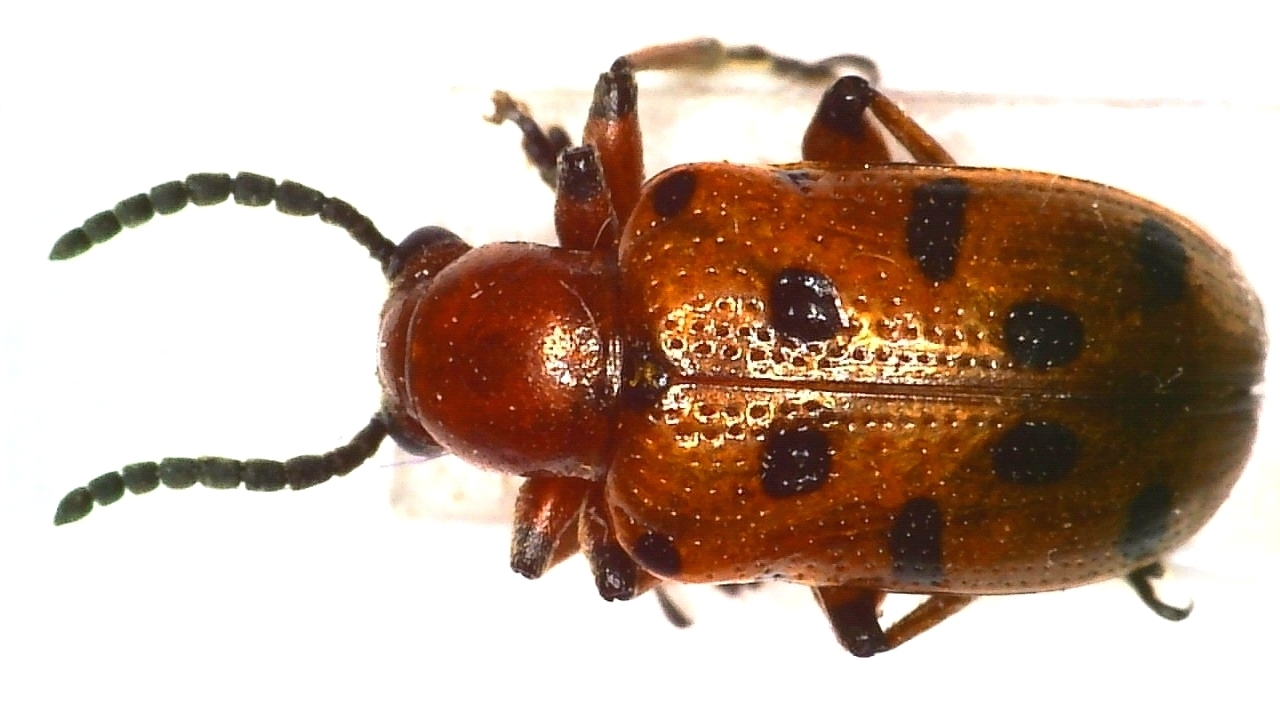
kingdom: Animalia
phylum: Arthropoda
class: Insecta
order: Coleoptera
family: Chrysomelidae
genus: Crioceris
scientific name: Crioceris duodecimpunctata
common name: Twelve-spotted asparagus beetle
